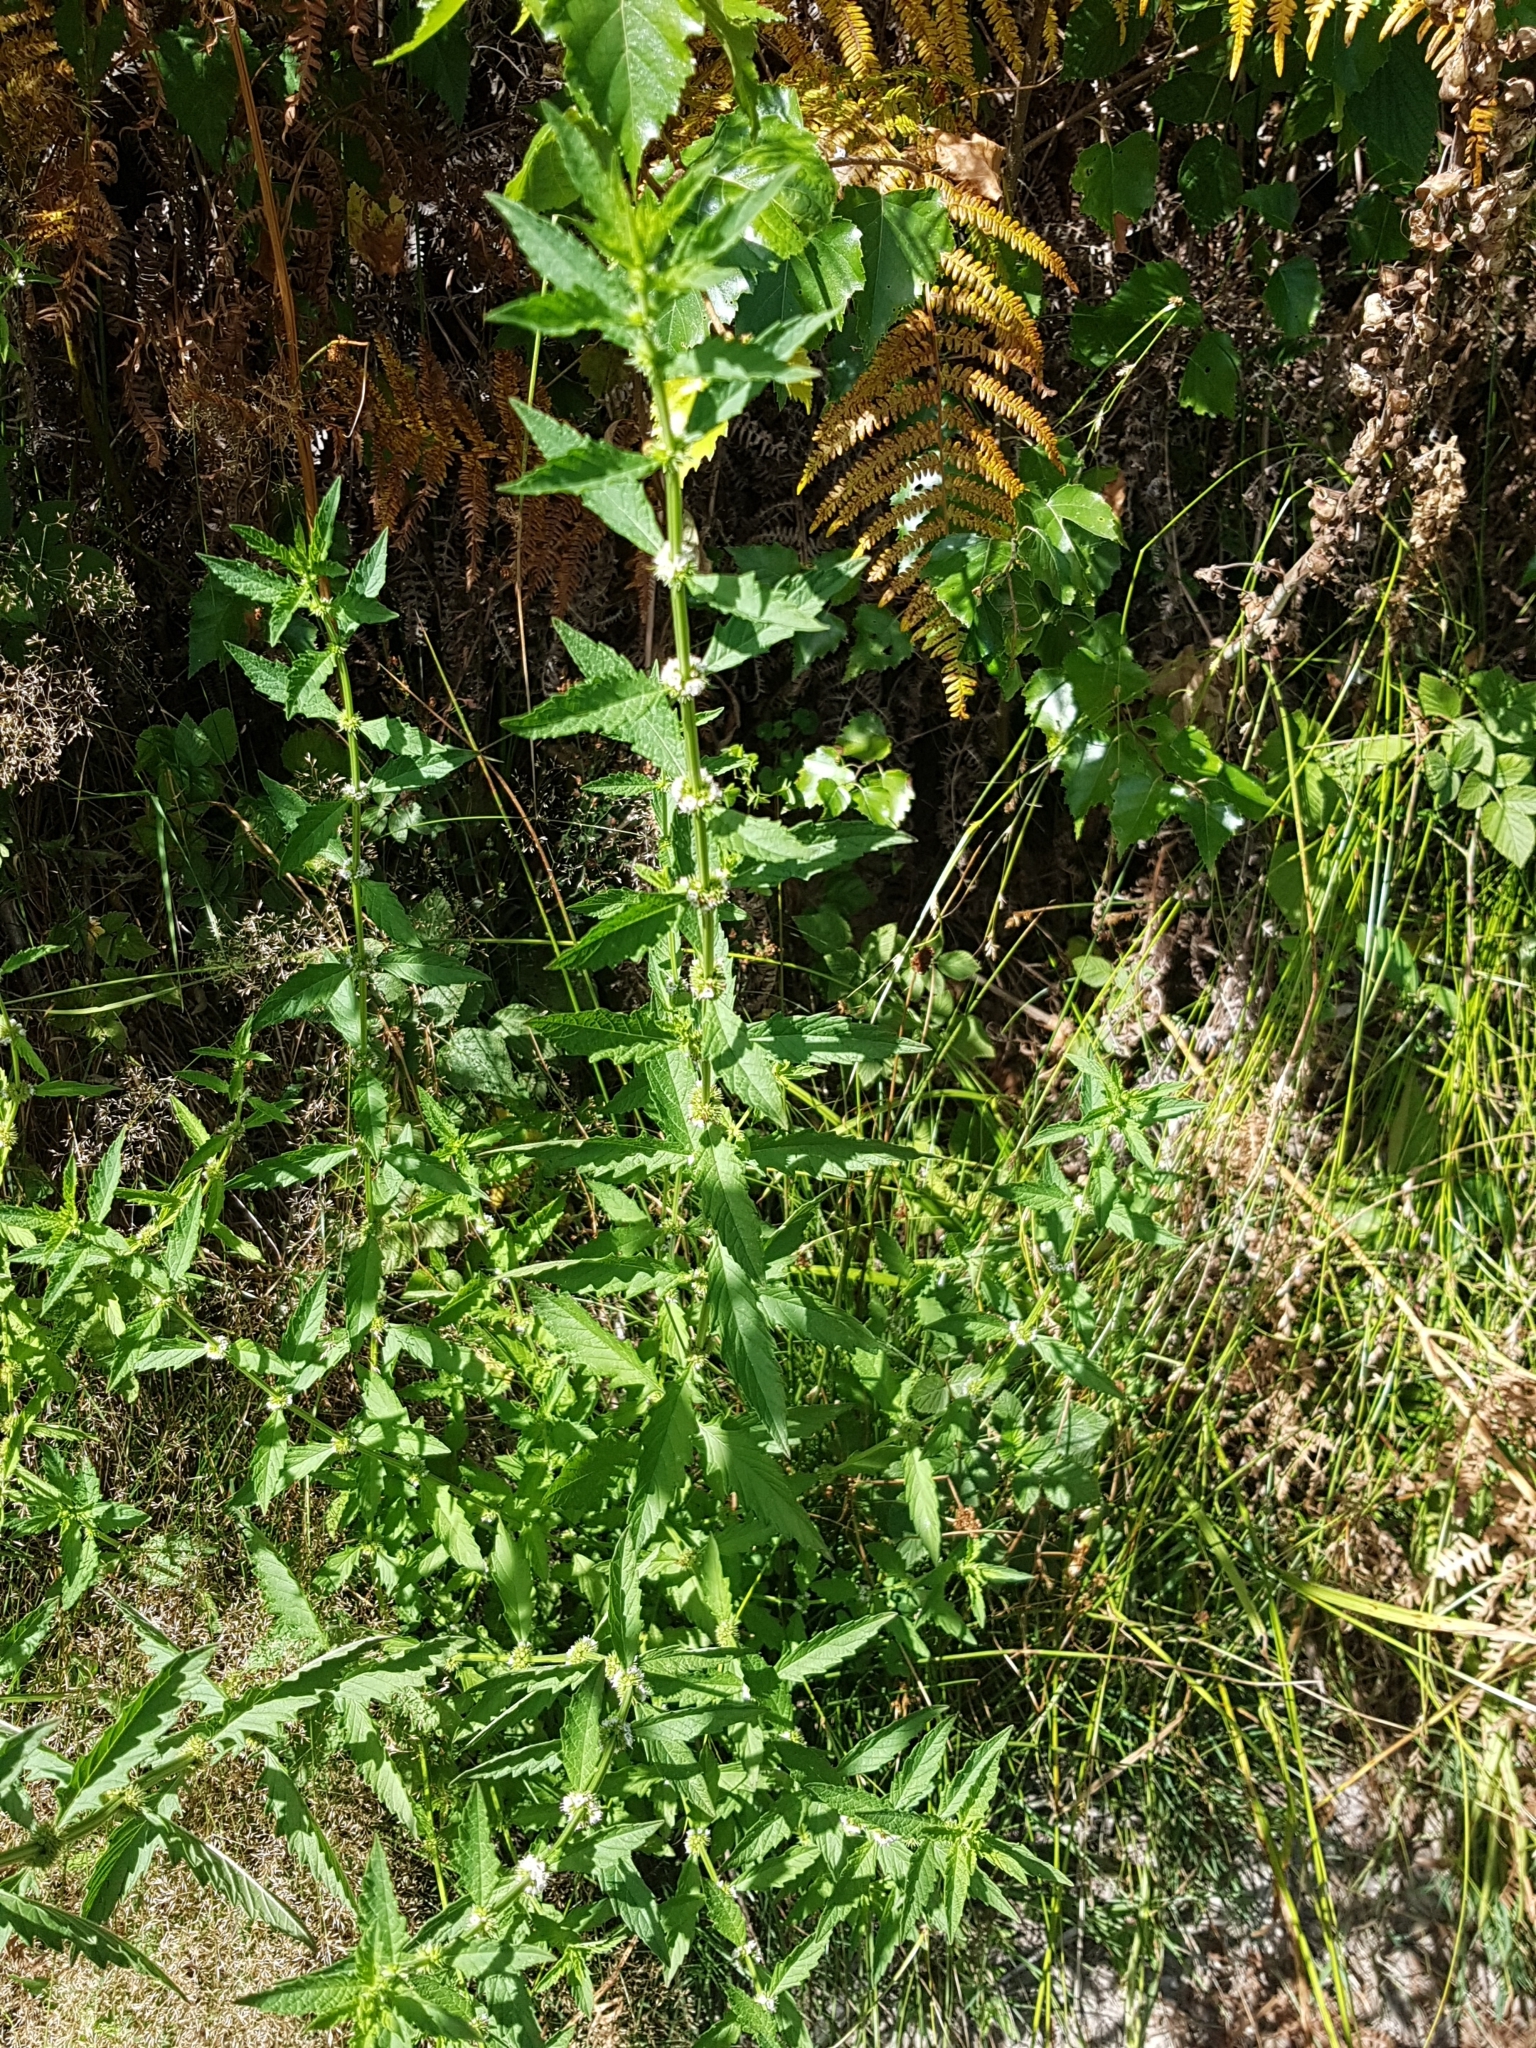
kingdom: Plantae
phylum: Tracheophyta
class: Magnoliopsida
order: Lamiales
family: Lamiaceae
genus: Lycopus
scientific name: Lycopus europaeus
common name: European bugleweed
